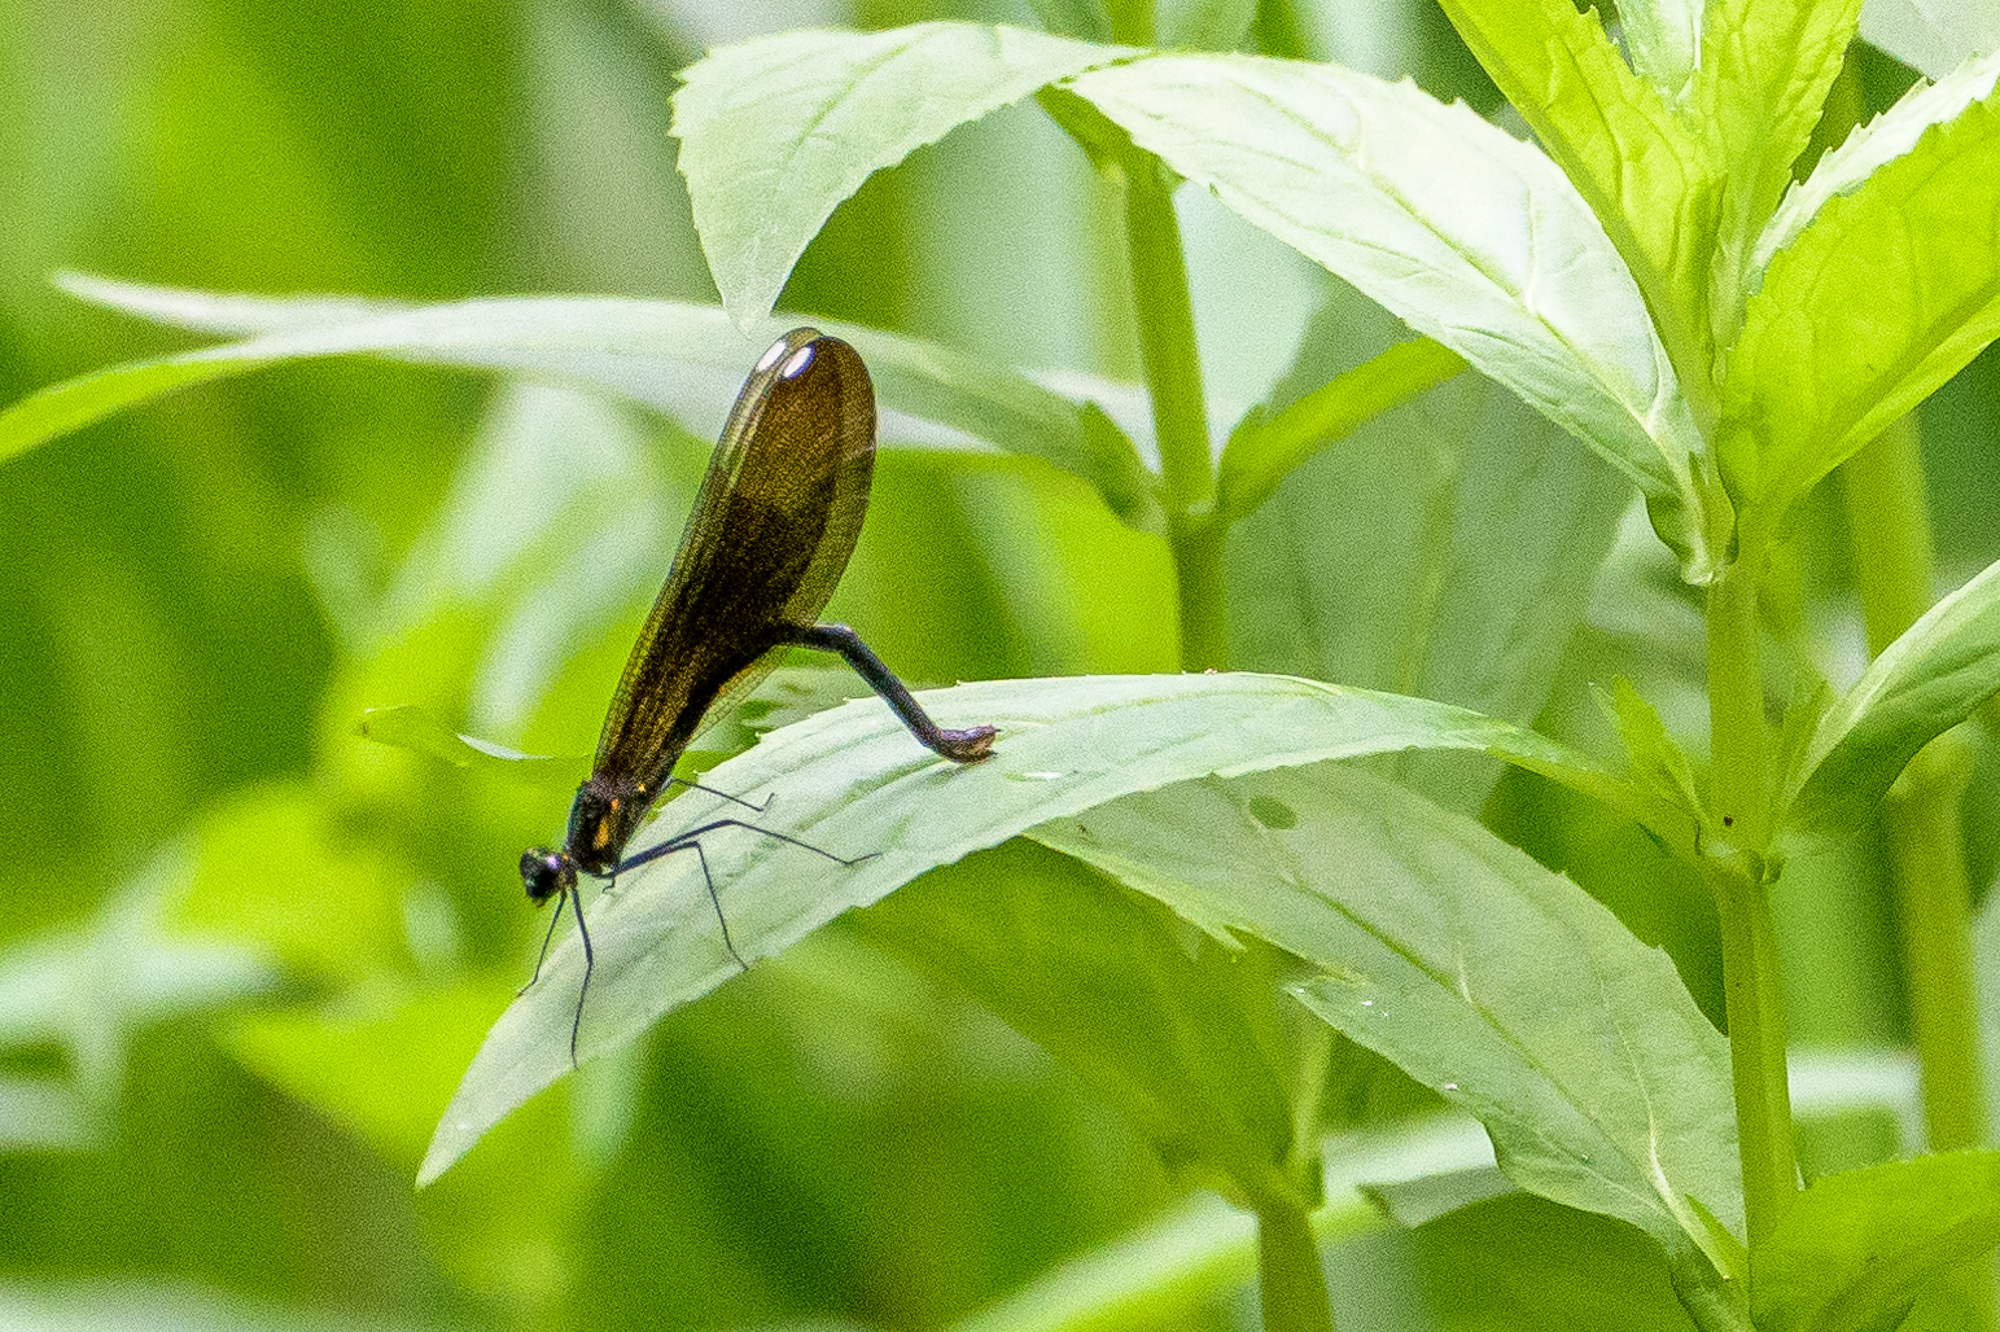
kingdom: Animalia
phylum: Arthropoda
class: Insecta
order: Odonata
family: Calopterygidae
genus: Calopteryx
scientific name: Calopteryx maculata
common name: Ebony jewelwing
